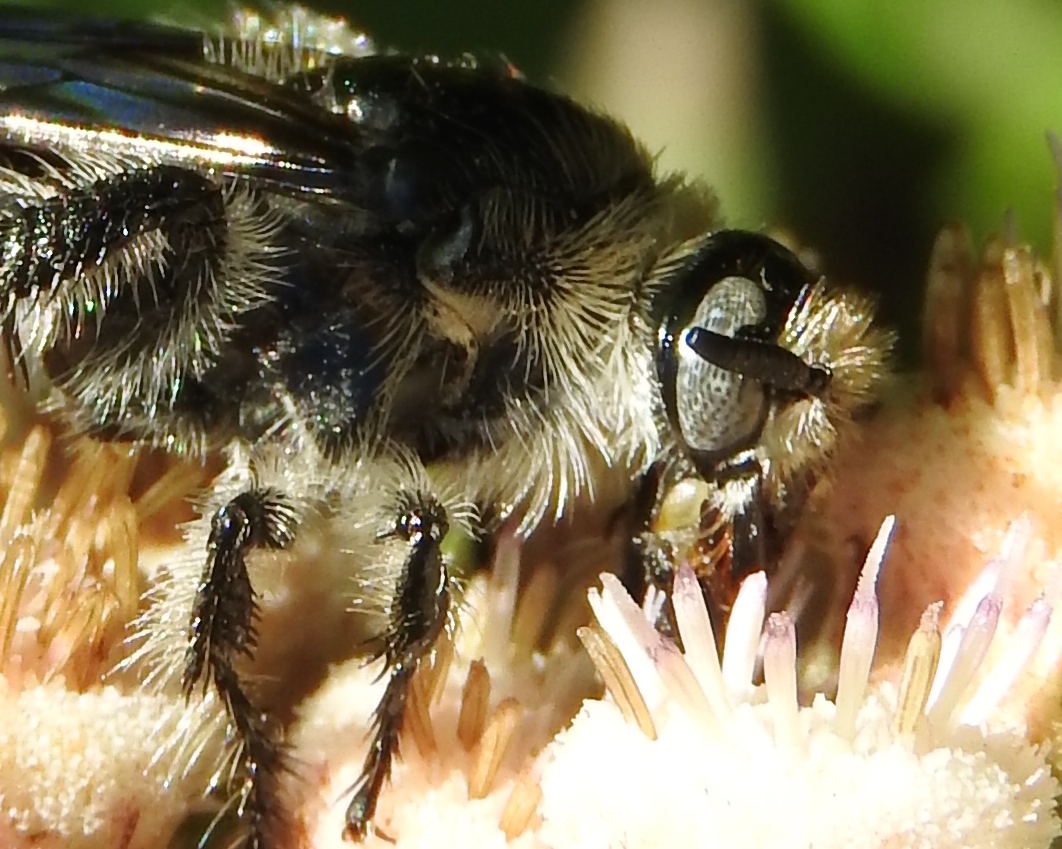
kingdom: Animalia
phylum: Arthropoda
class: Insecta
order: Hymenoptera
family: Scoliidae
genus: Dielis
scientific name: Dielis tolteca
